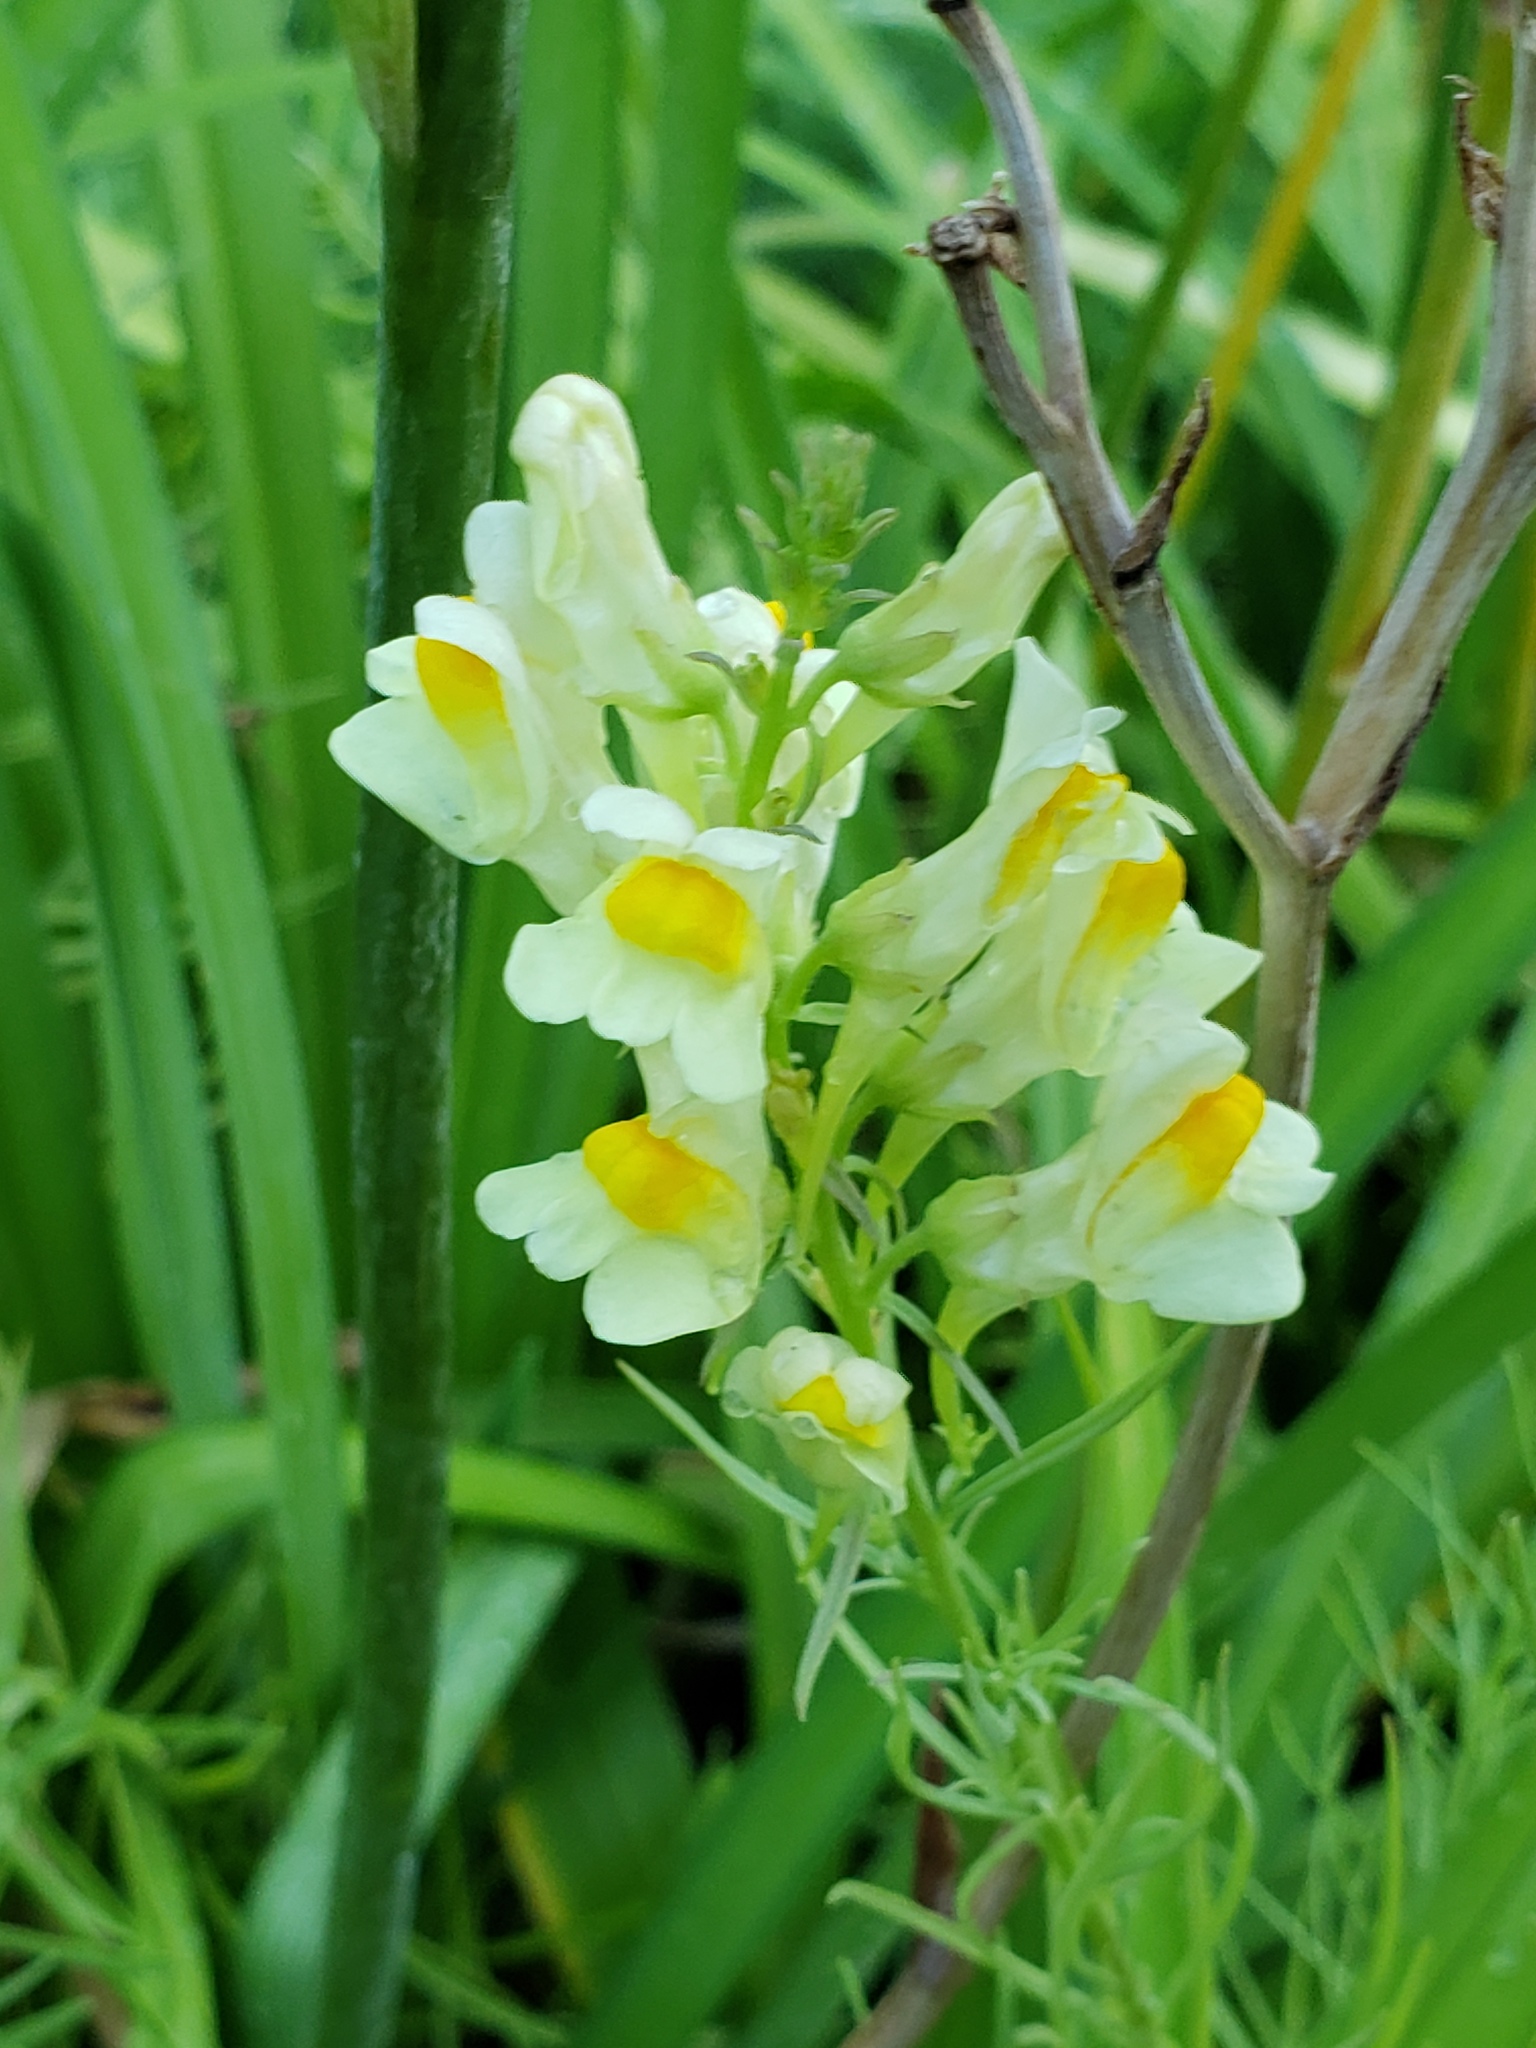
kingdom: Plantae
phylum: Tracheophyta
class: Magnoliopsida
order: Lamiales
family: Plantaginaceae
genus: Linaria
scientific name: Linaria vulgaris
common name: Butter and eggs
